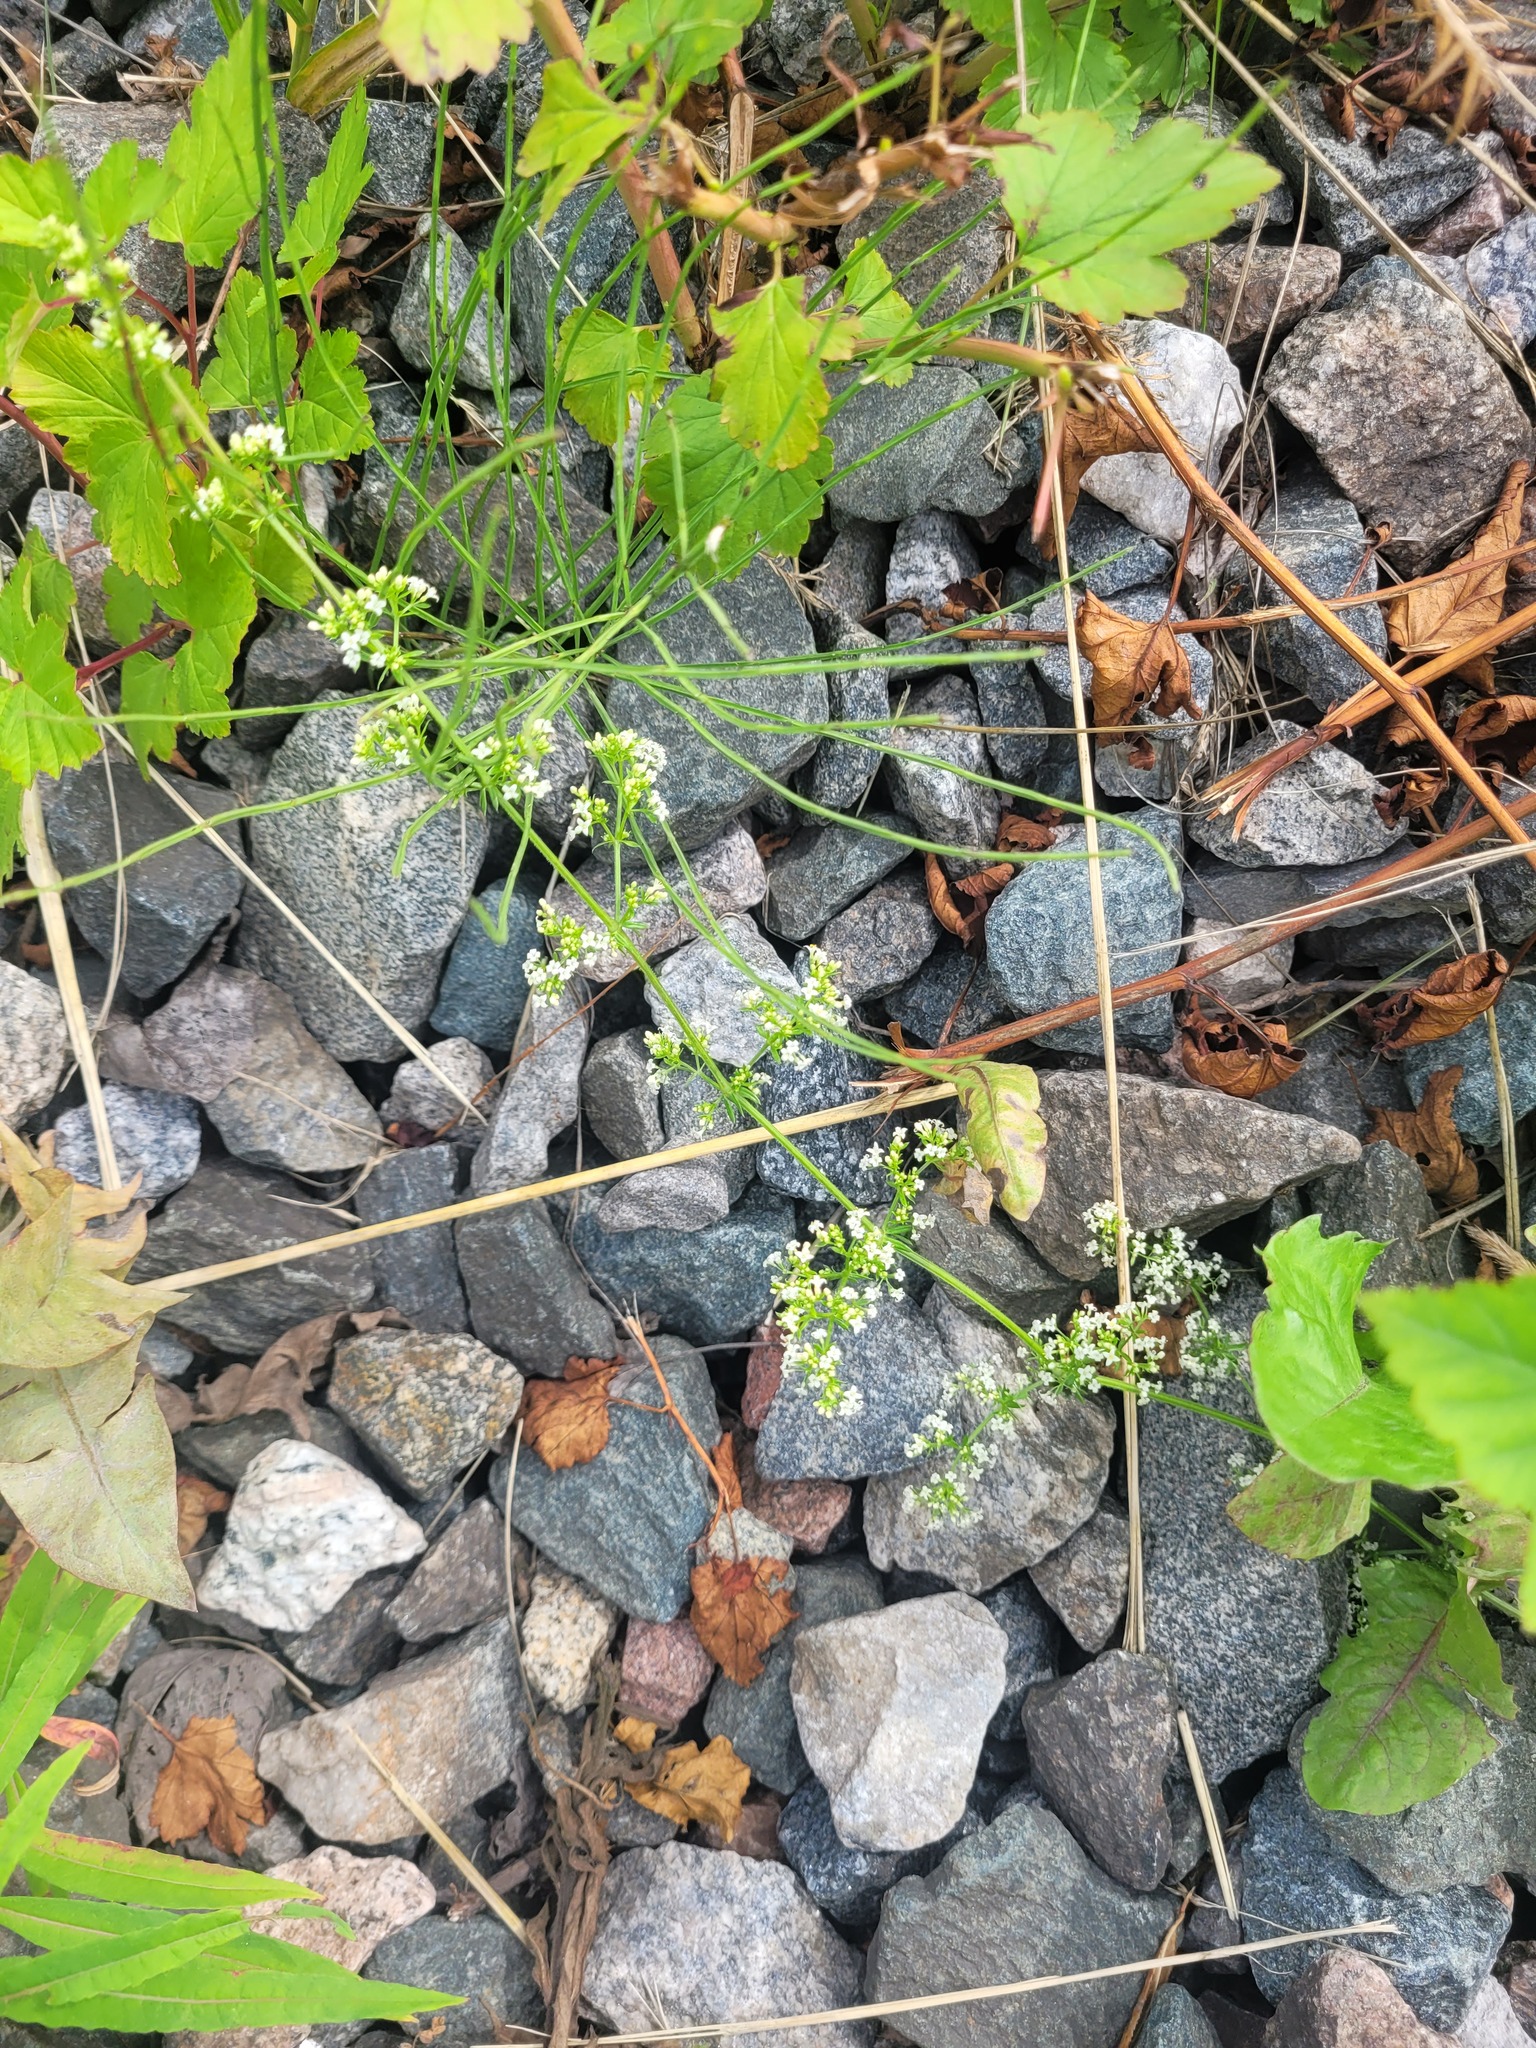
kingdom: Plantae
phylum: Tracheophyta
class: Magnoliopsida
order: Gentianales
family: Rubiaceae
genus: Galium
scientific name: Galium humifusum
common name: Spreading bedstraw
